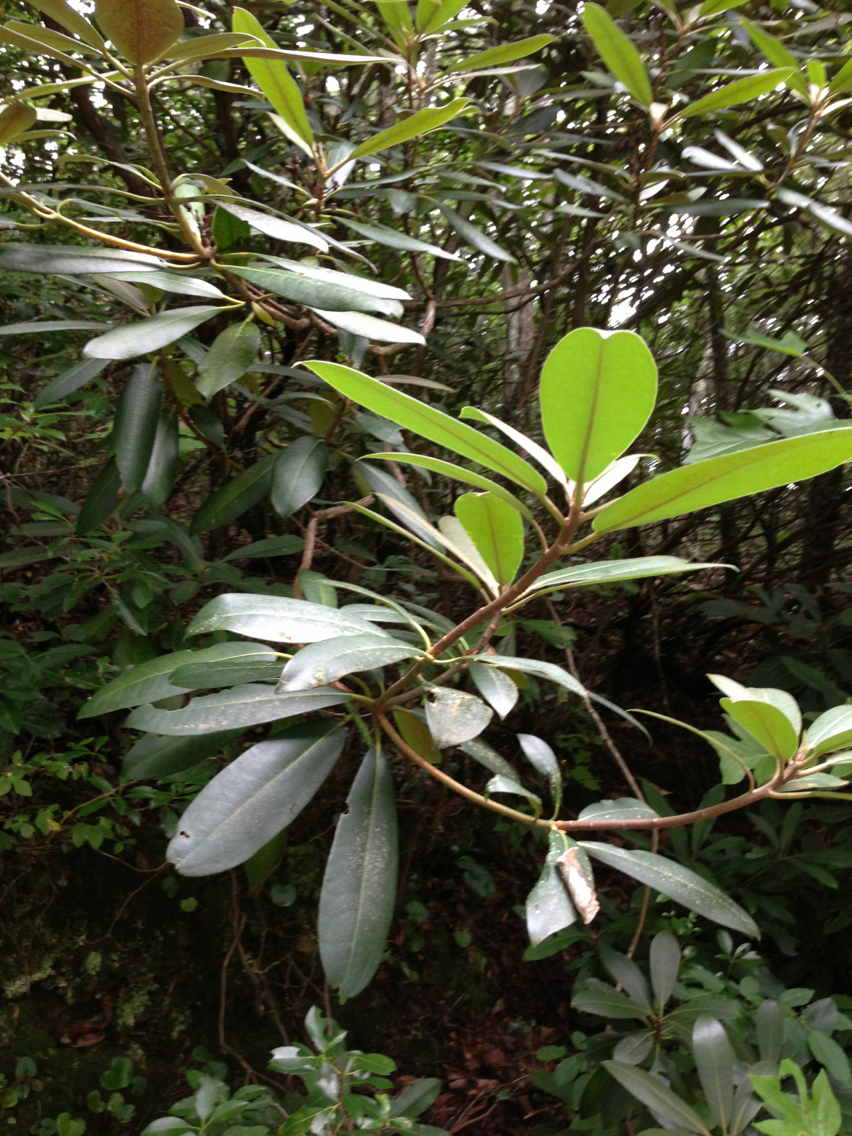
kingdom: Plantae
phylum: Tracheophyta
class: Magnoliopsida
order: Ericales
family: Ericaceae
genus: Rhododendron
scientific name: Rhododendron maximum
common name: Great rhododendron
